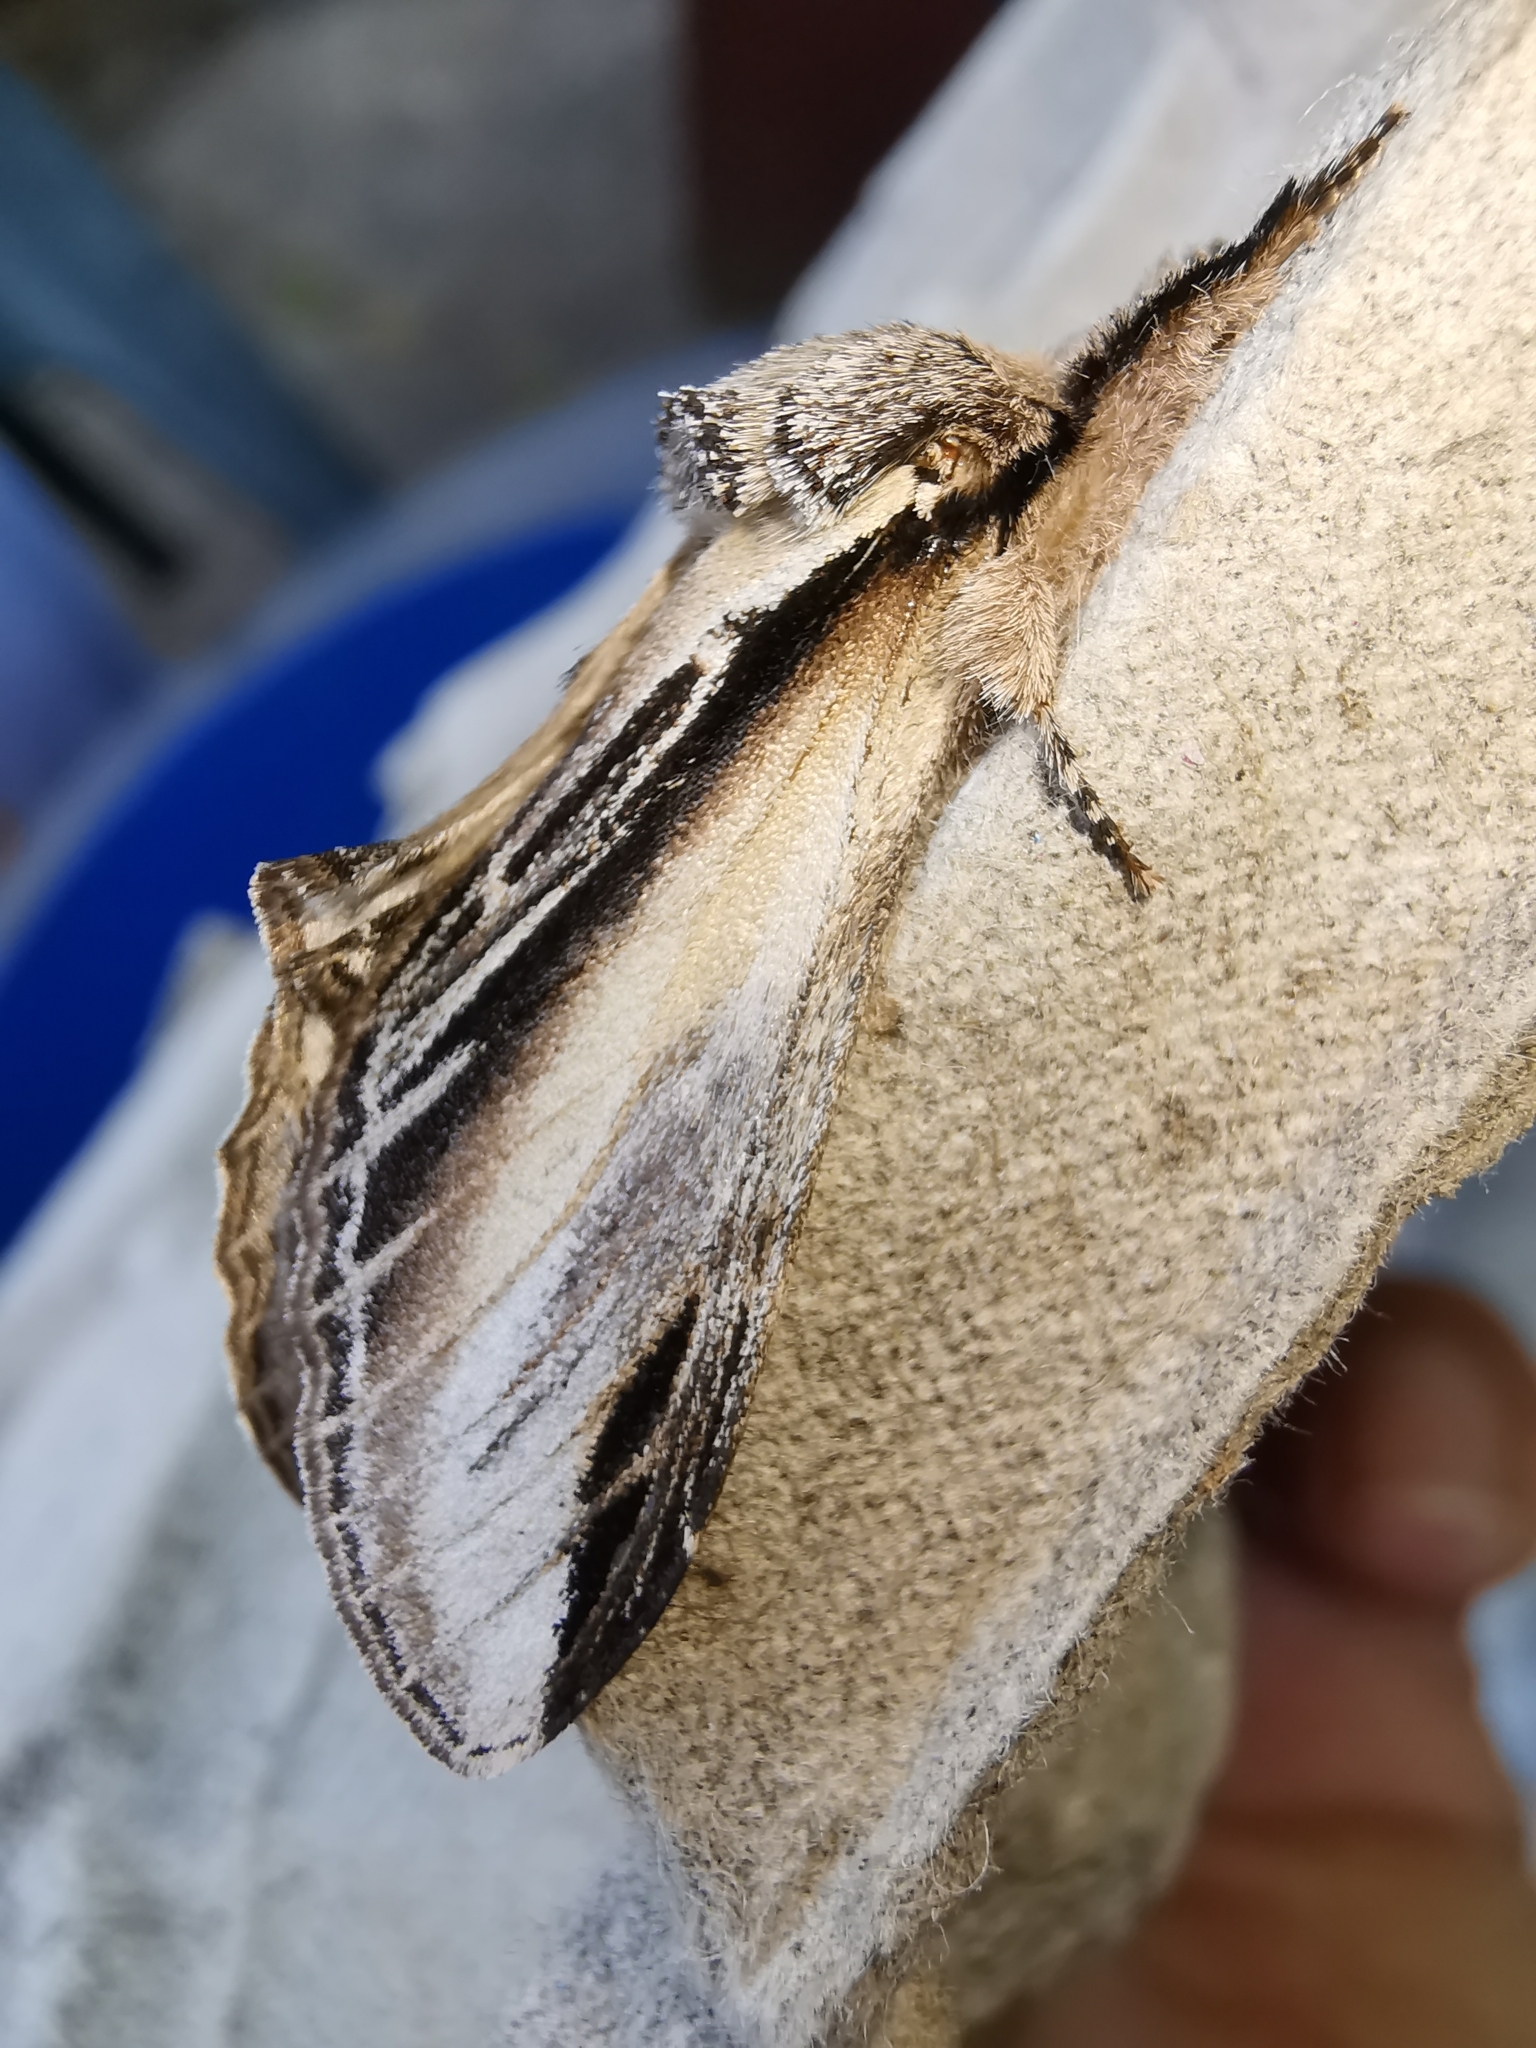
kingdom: Animalia
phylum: Arthropoda
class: Insecta
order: Lepidoptera
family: Notodontidae
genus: Pheosia
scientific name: Pheosia tremula
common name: Swallow prominent
